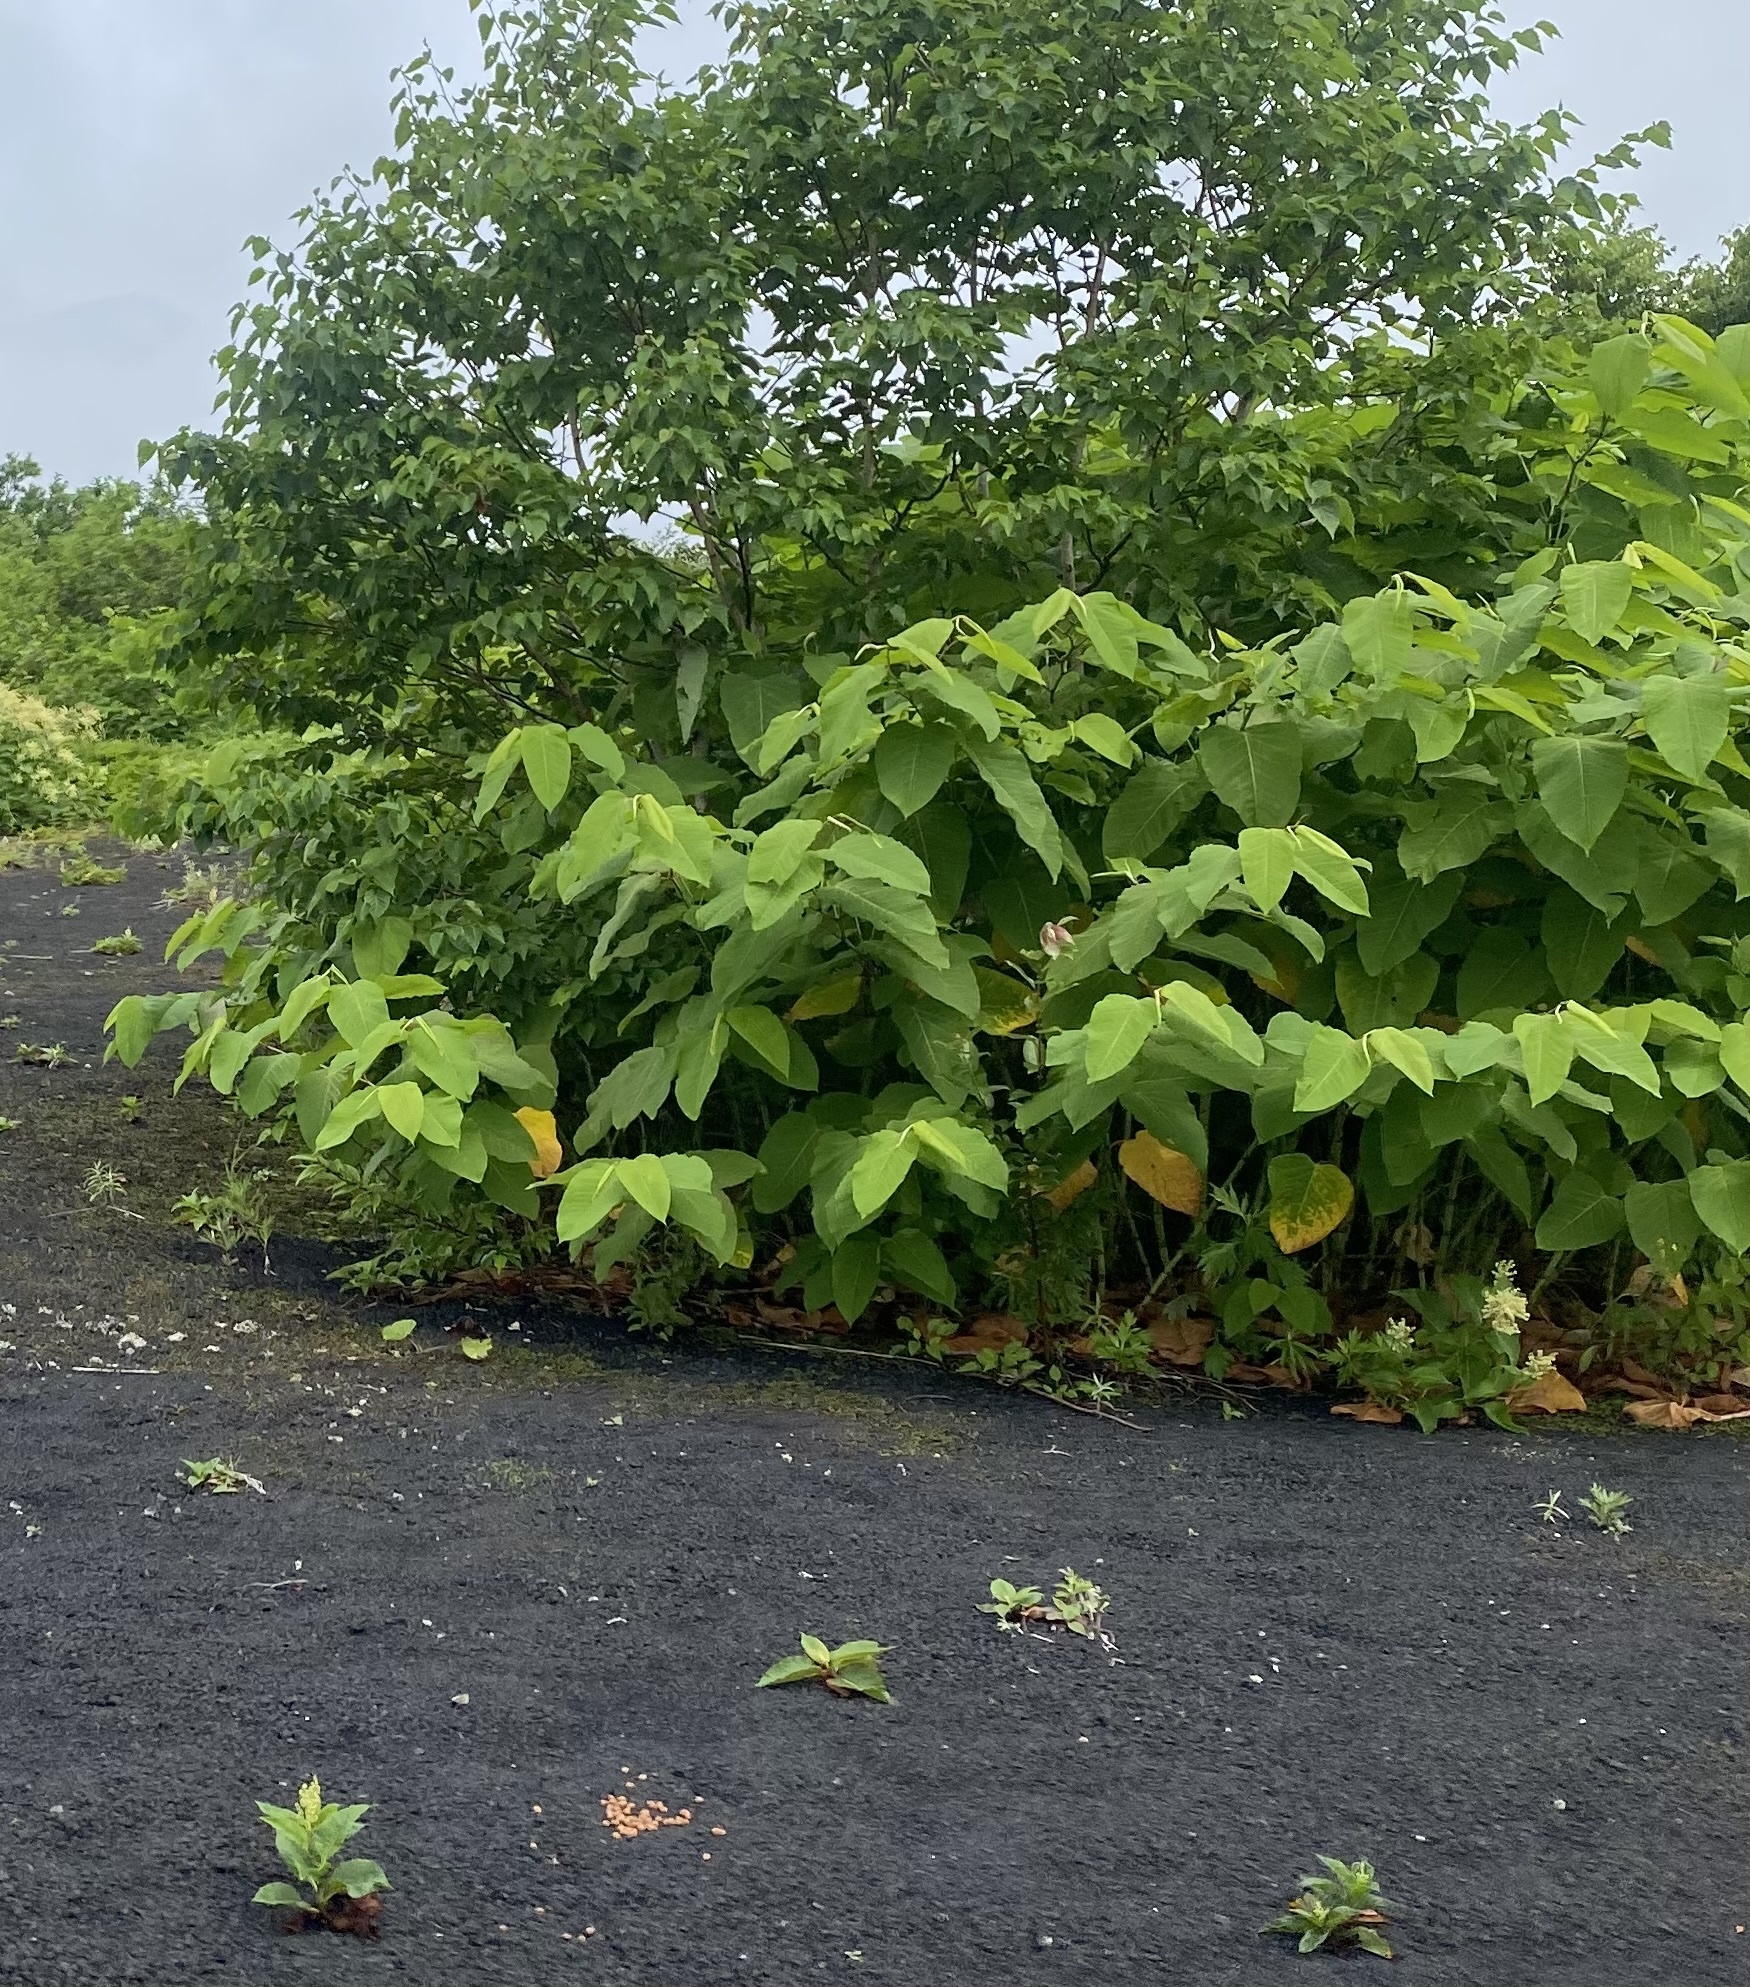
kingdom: Plantae
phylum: Tracheophyta
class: Magnoliopsida
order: Caryophyllales
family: Polygonaceae
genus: Reynoutria
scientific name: Reynoutria sachalinensis
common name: Giant knotweed
